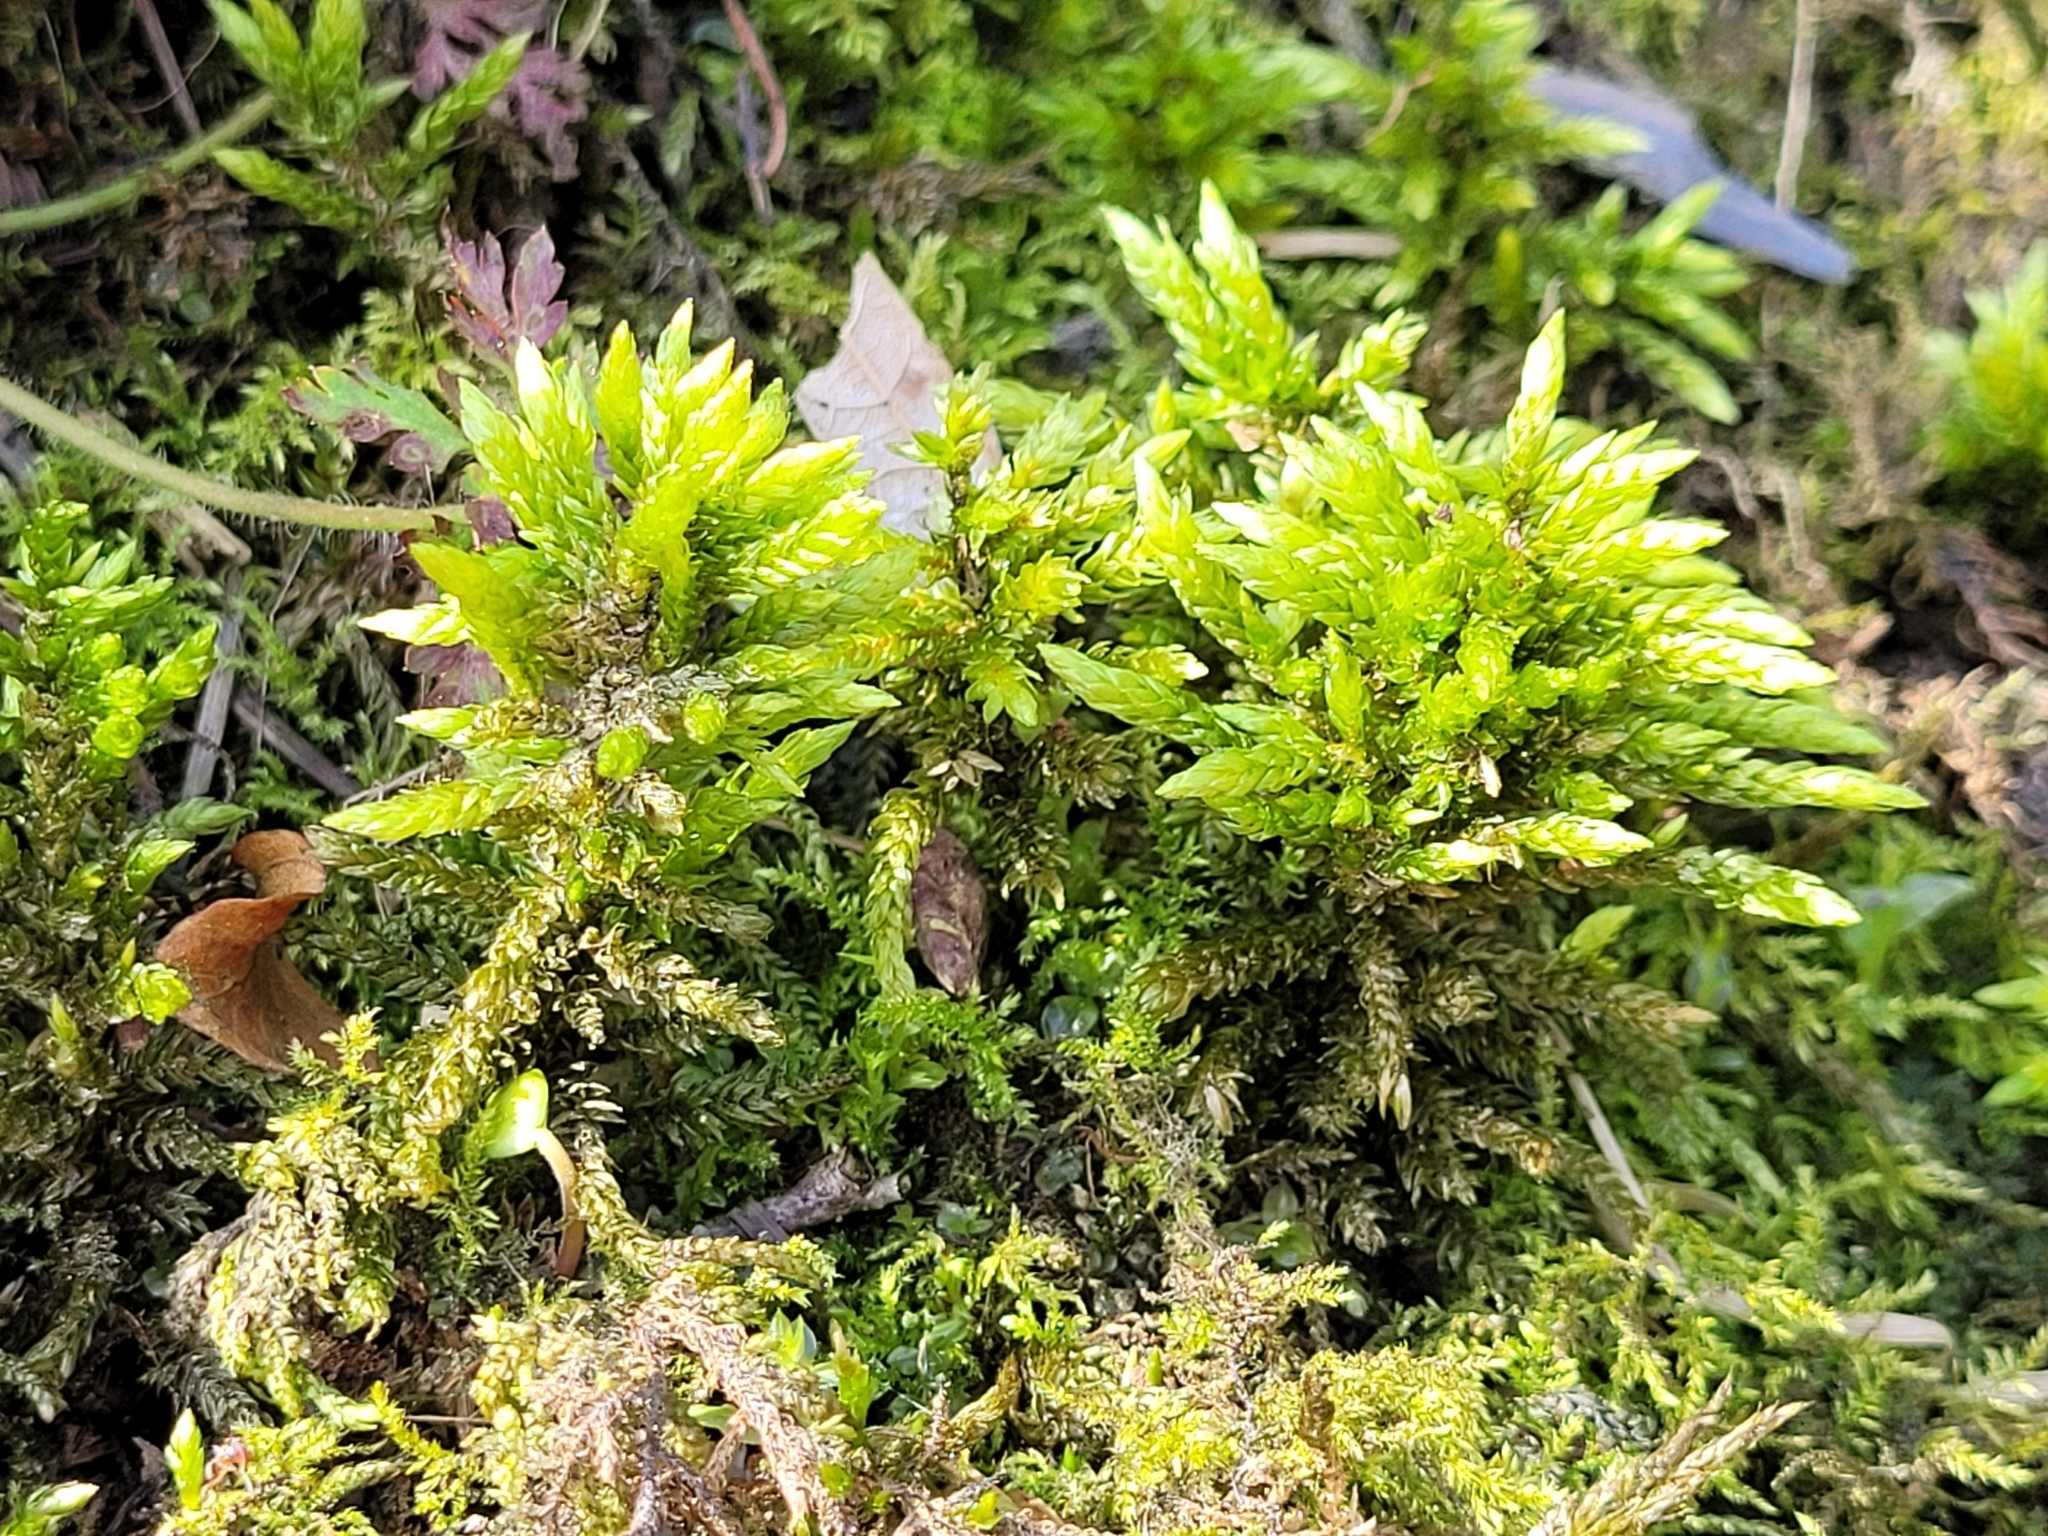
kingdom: Plantae
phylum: Bryophyta
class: Bryopsida
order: Hypnales
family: Climaciaceae
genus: Climacium
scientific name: Climacium dendroides
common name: Northern tree moss
